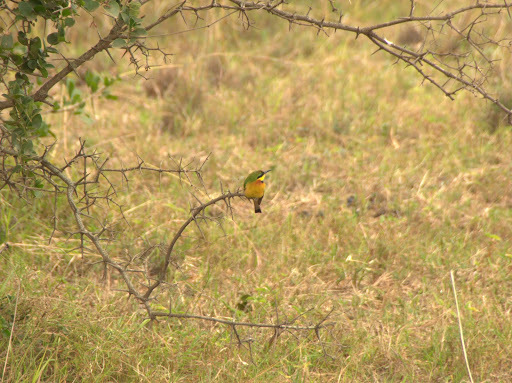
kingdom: Animalia
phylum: Chordata
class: Aves
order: Coraciiformes
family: Meropidae
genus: Merops
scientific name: Merops pusillus
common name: Little bee-eater
